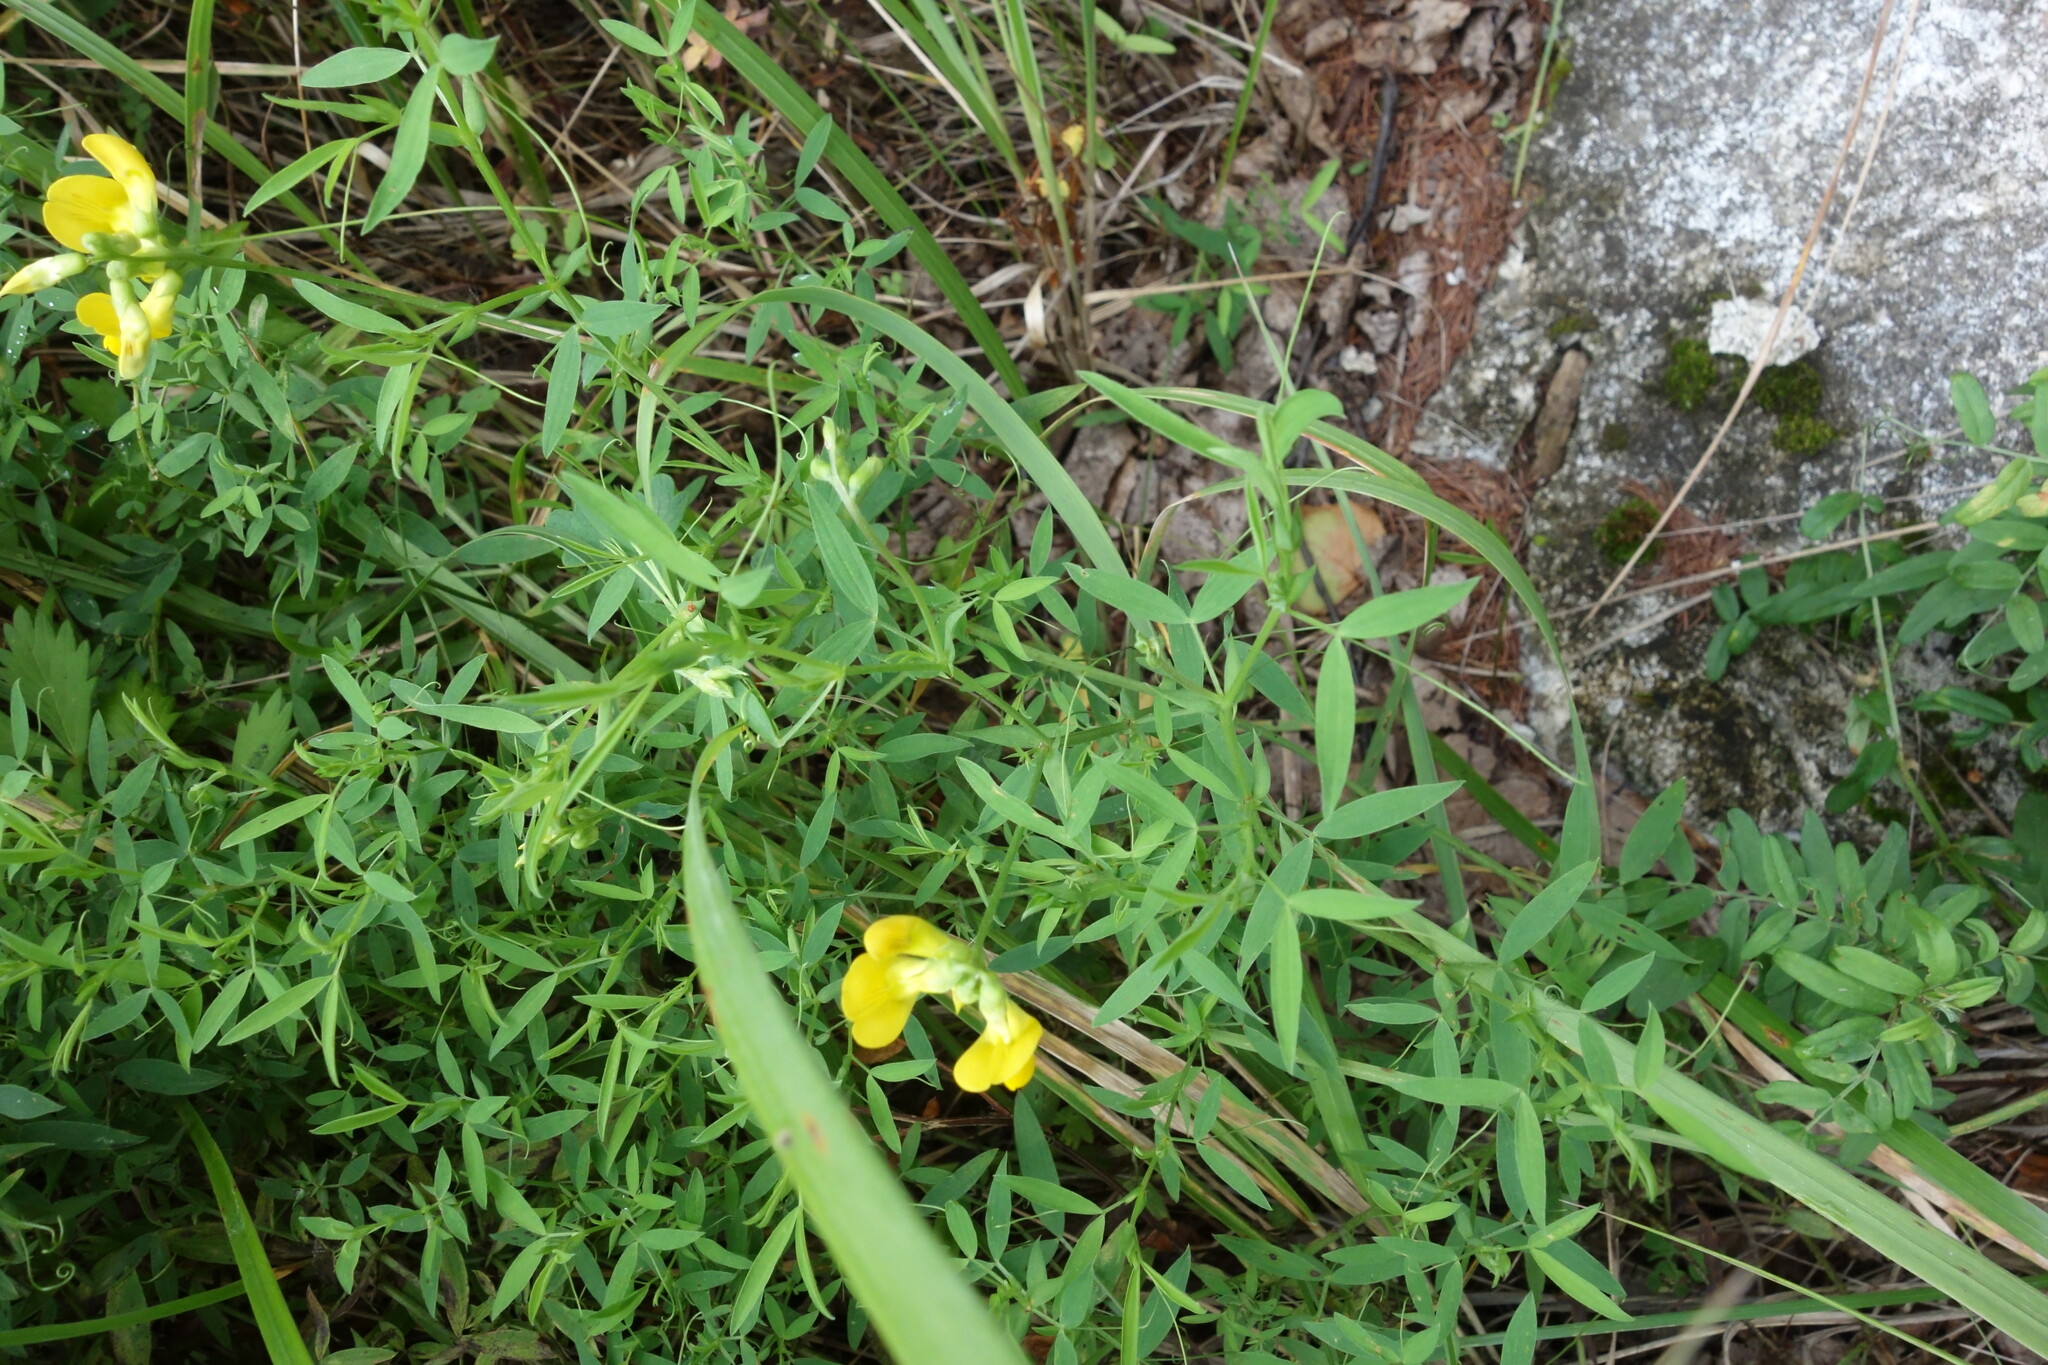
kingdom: Plantae
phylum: Tracheophyta
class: Magnoliopsida
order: Fabales
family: Fabaceae
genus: Lathyrus
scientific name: Lathyrus pratensis
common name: Meadow vetchling
